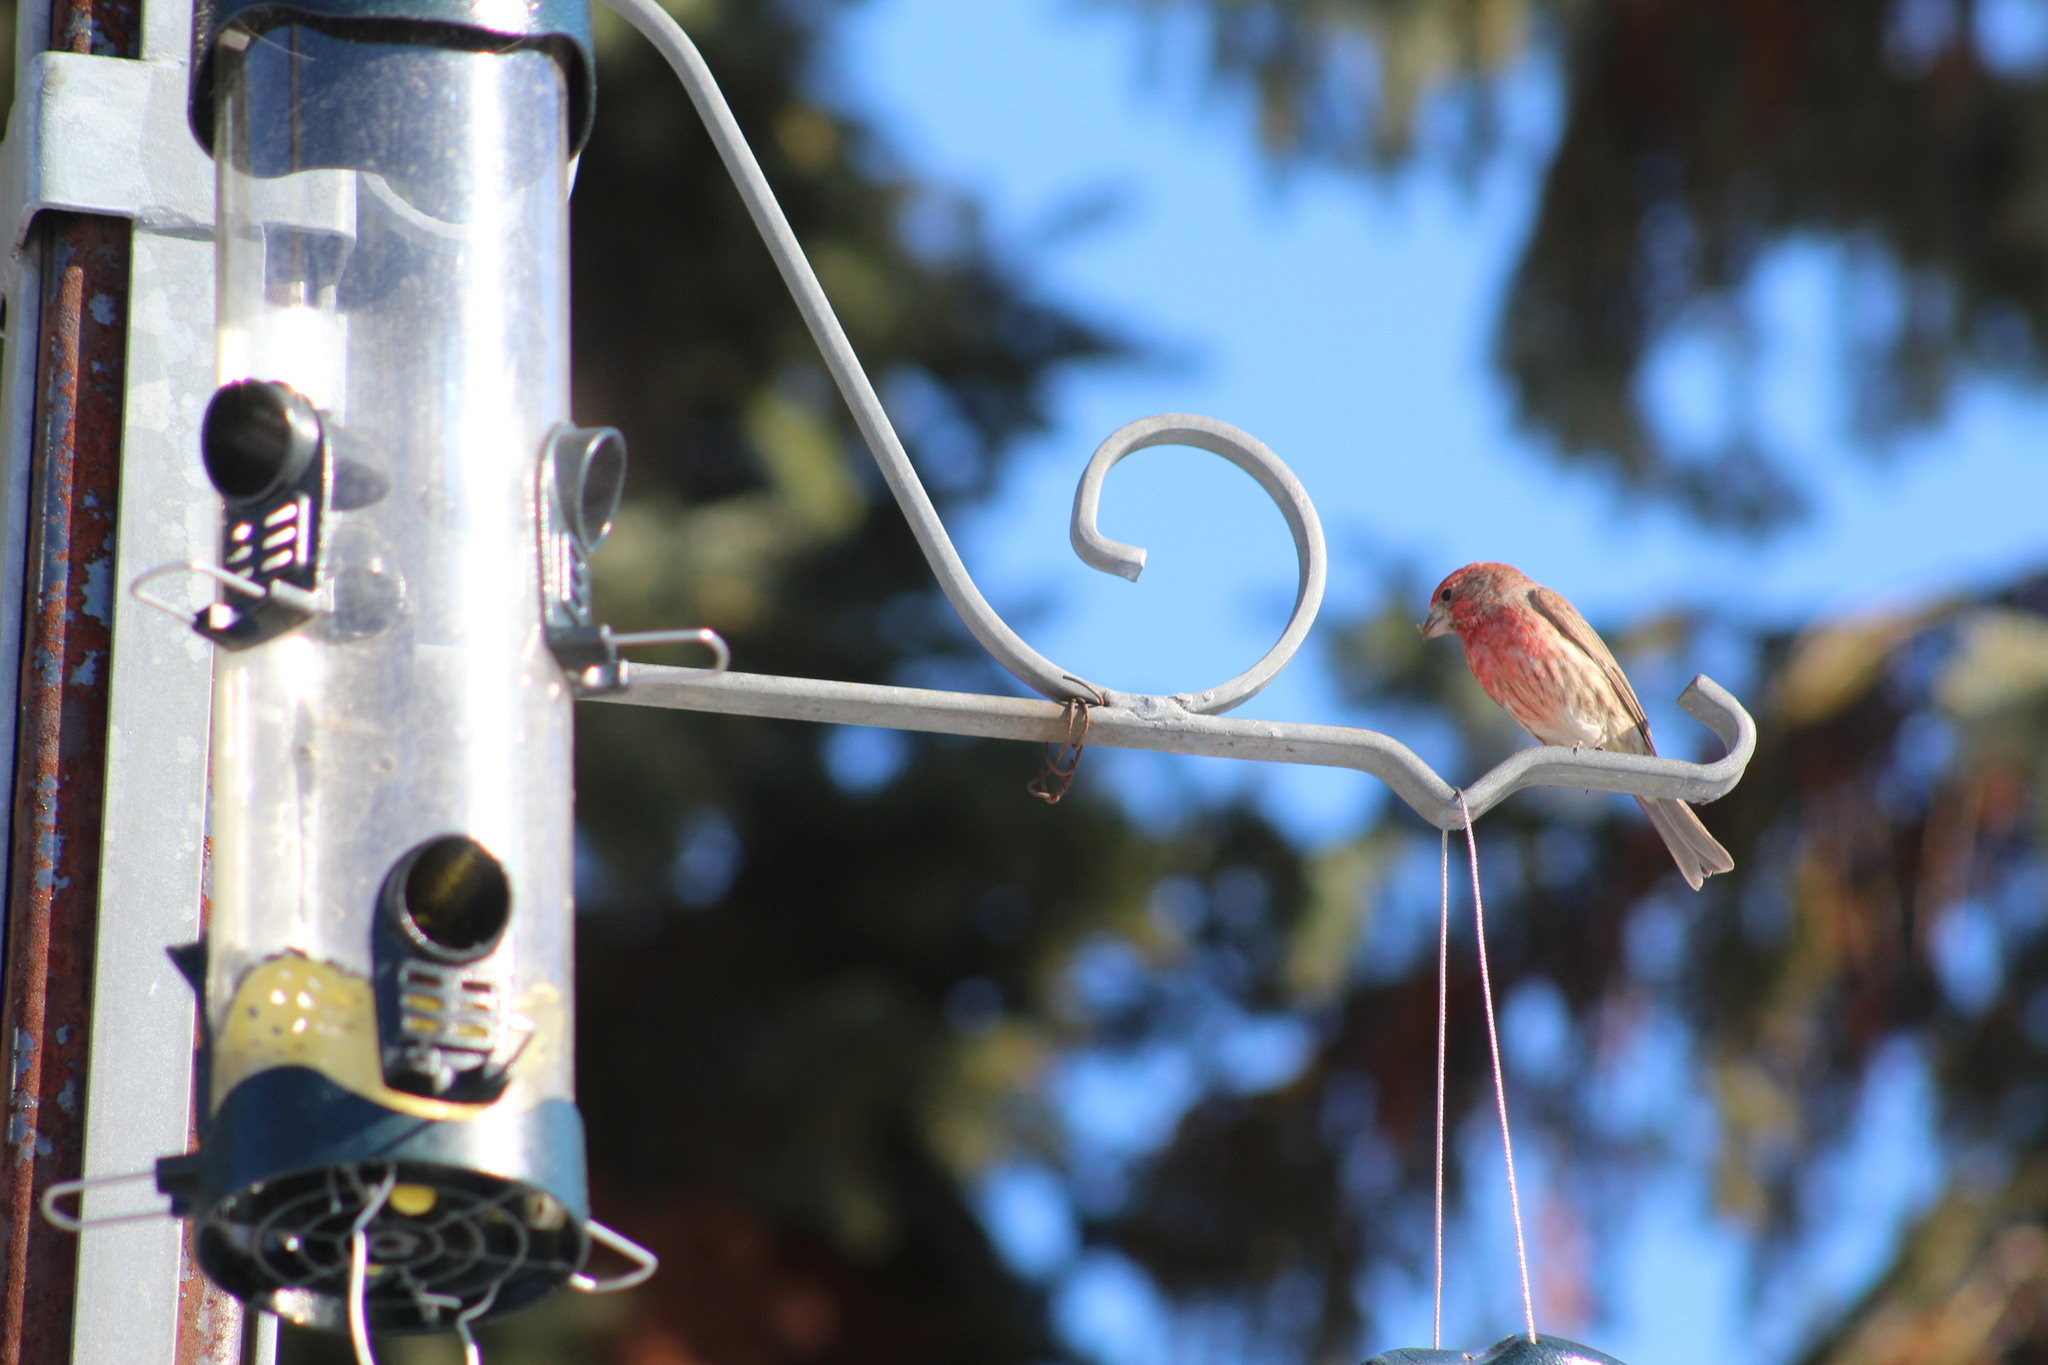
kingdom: Animalia
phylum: Chordata
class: Aves
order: Passeriformes
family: Fringillidae
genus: Haemorhous
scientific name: Haemorhous mexicanus
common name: House finch
